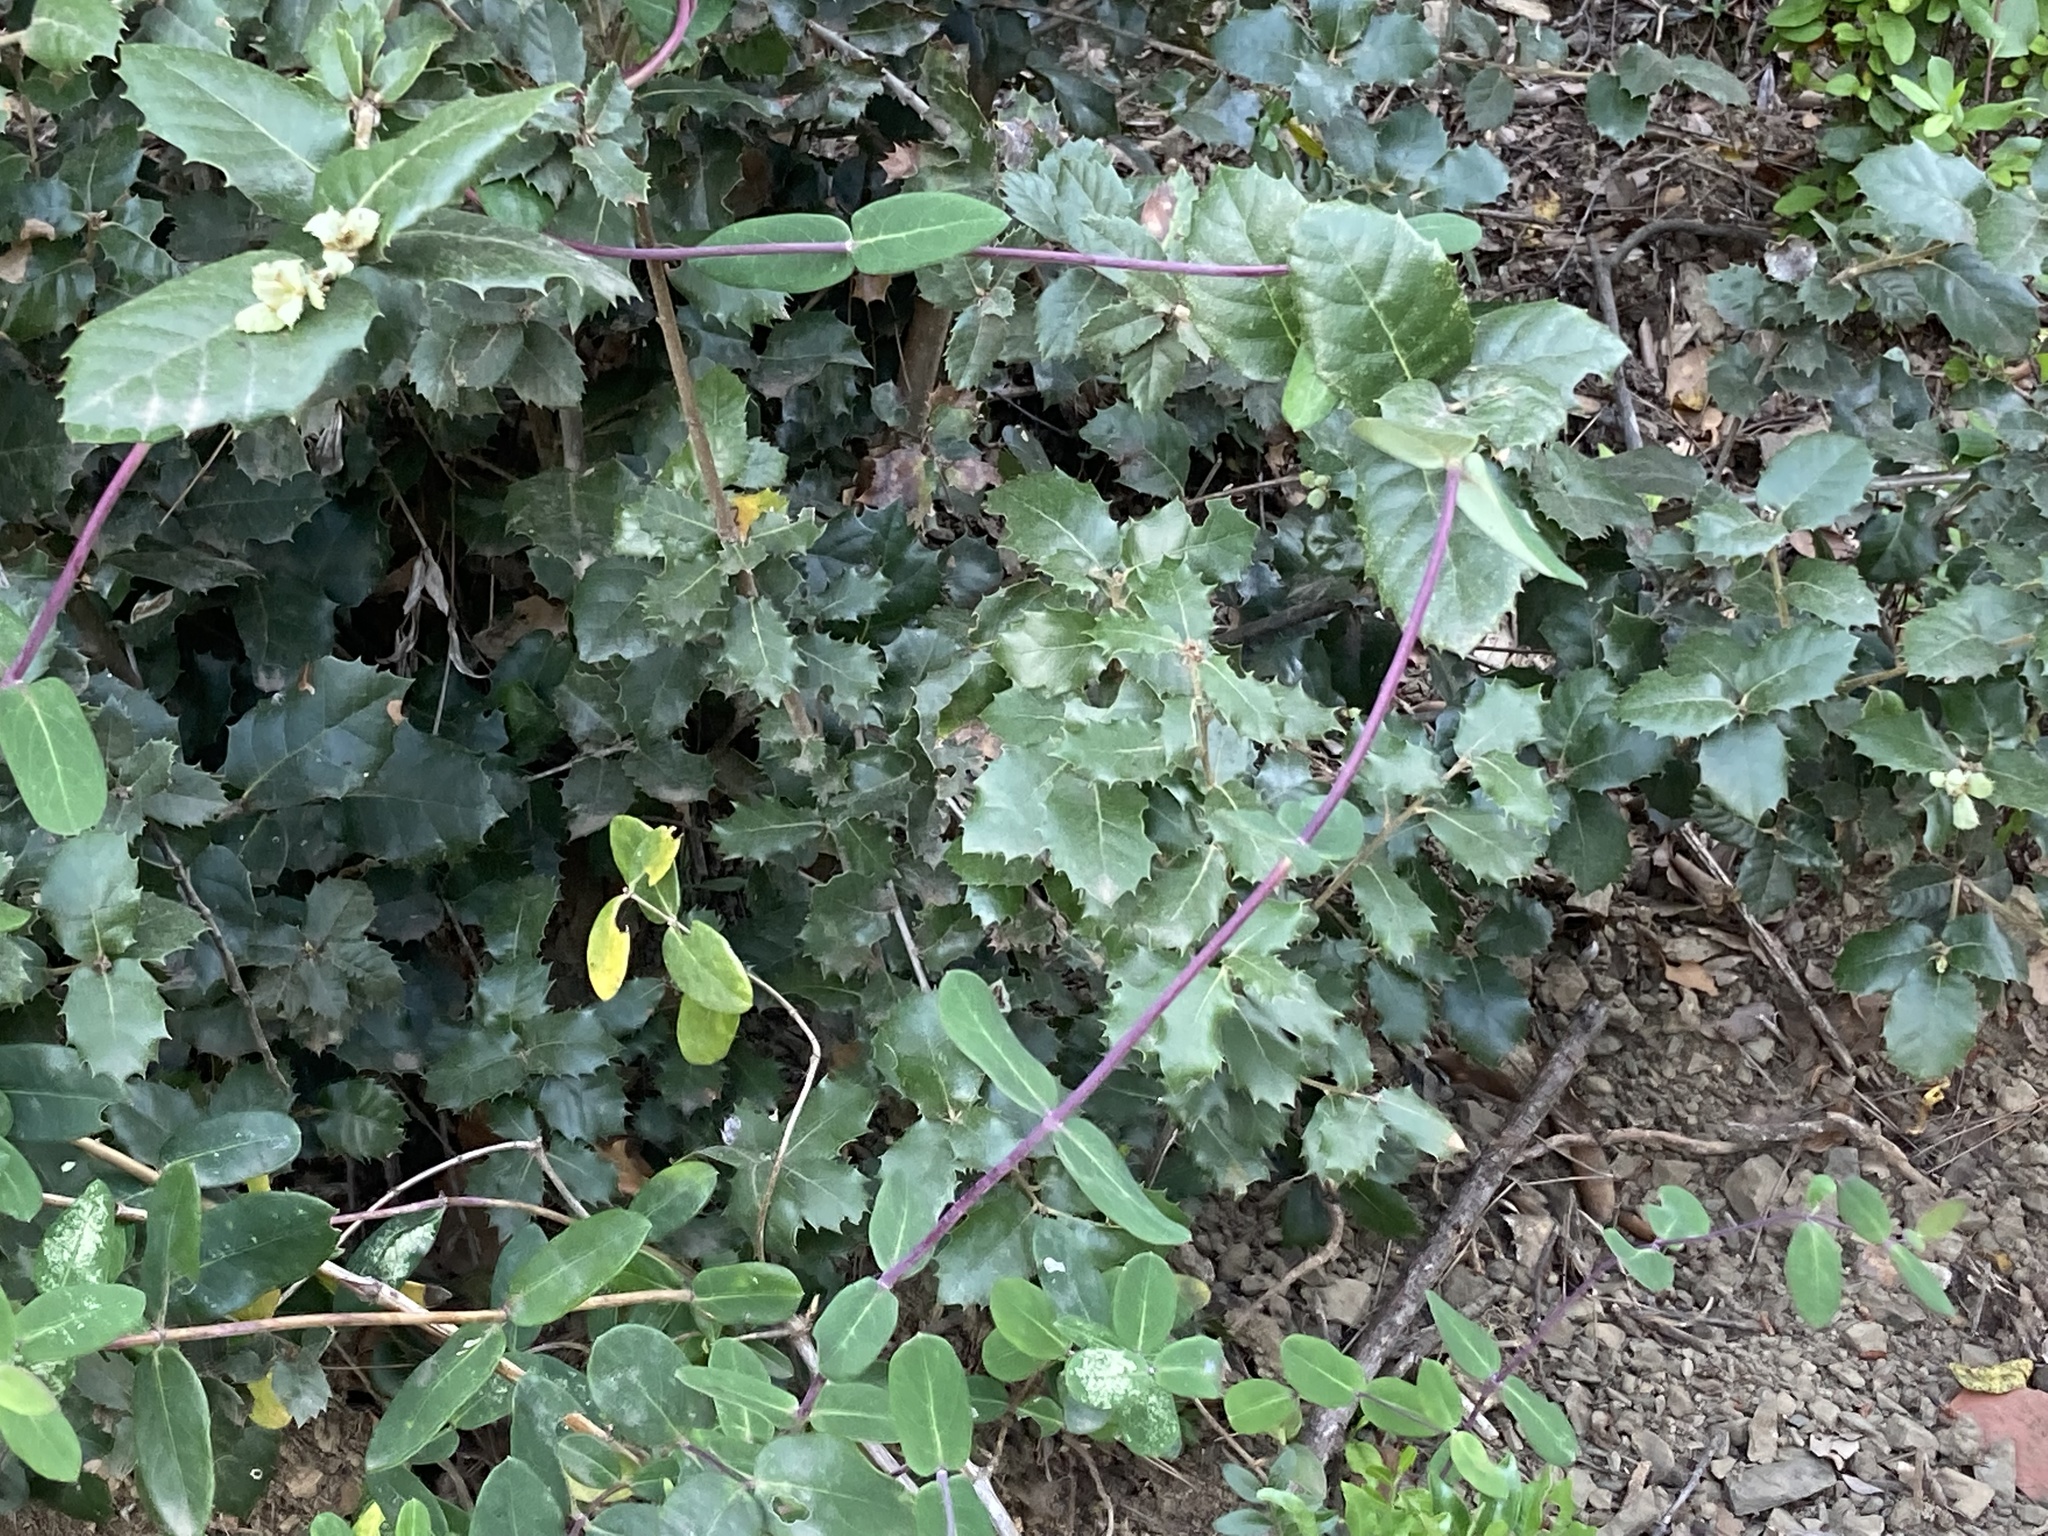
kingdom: Plantae
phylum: Tracheophyta
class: Magnoliopsida
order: Dipsacales
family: Caprifoliaceae
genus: Lonicera
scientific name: Lonicera implexa
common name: Minorca honeysuckle
